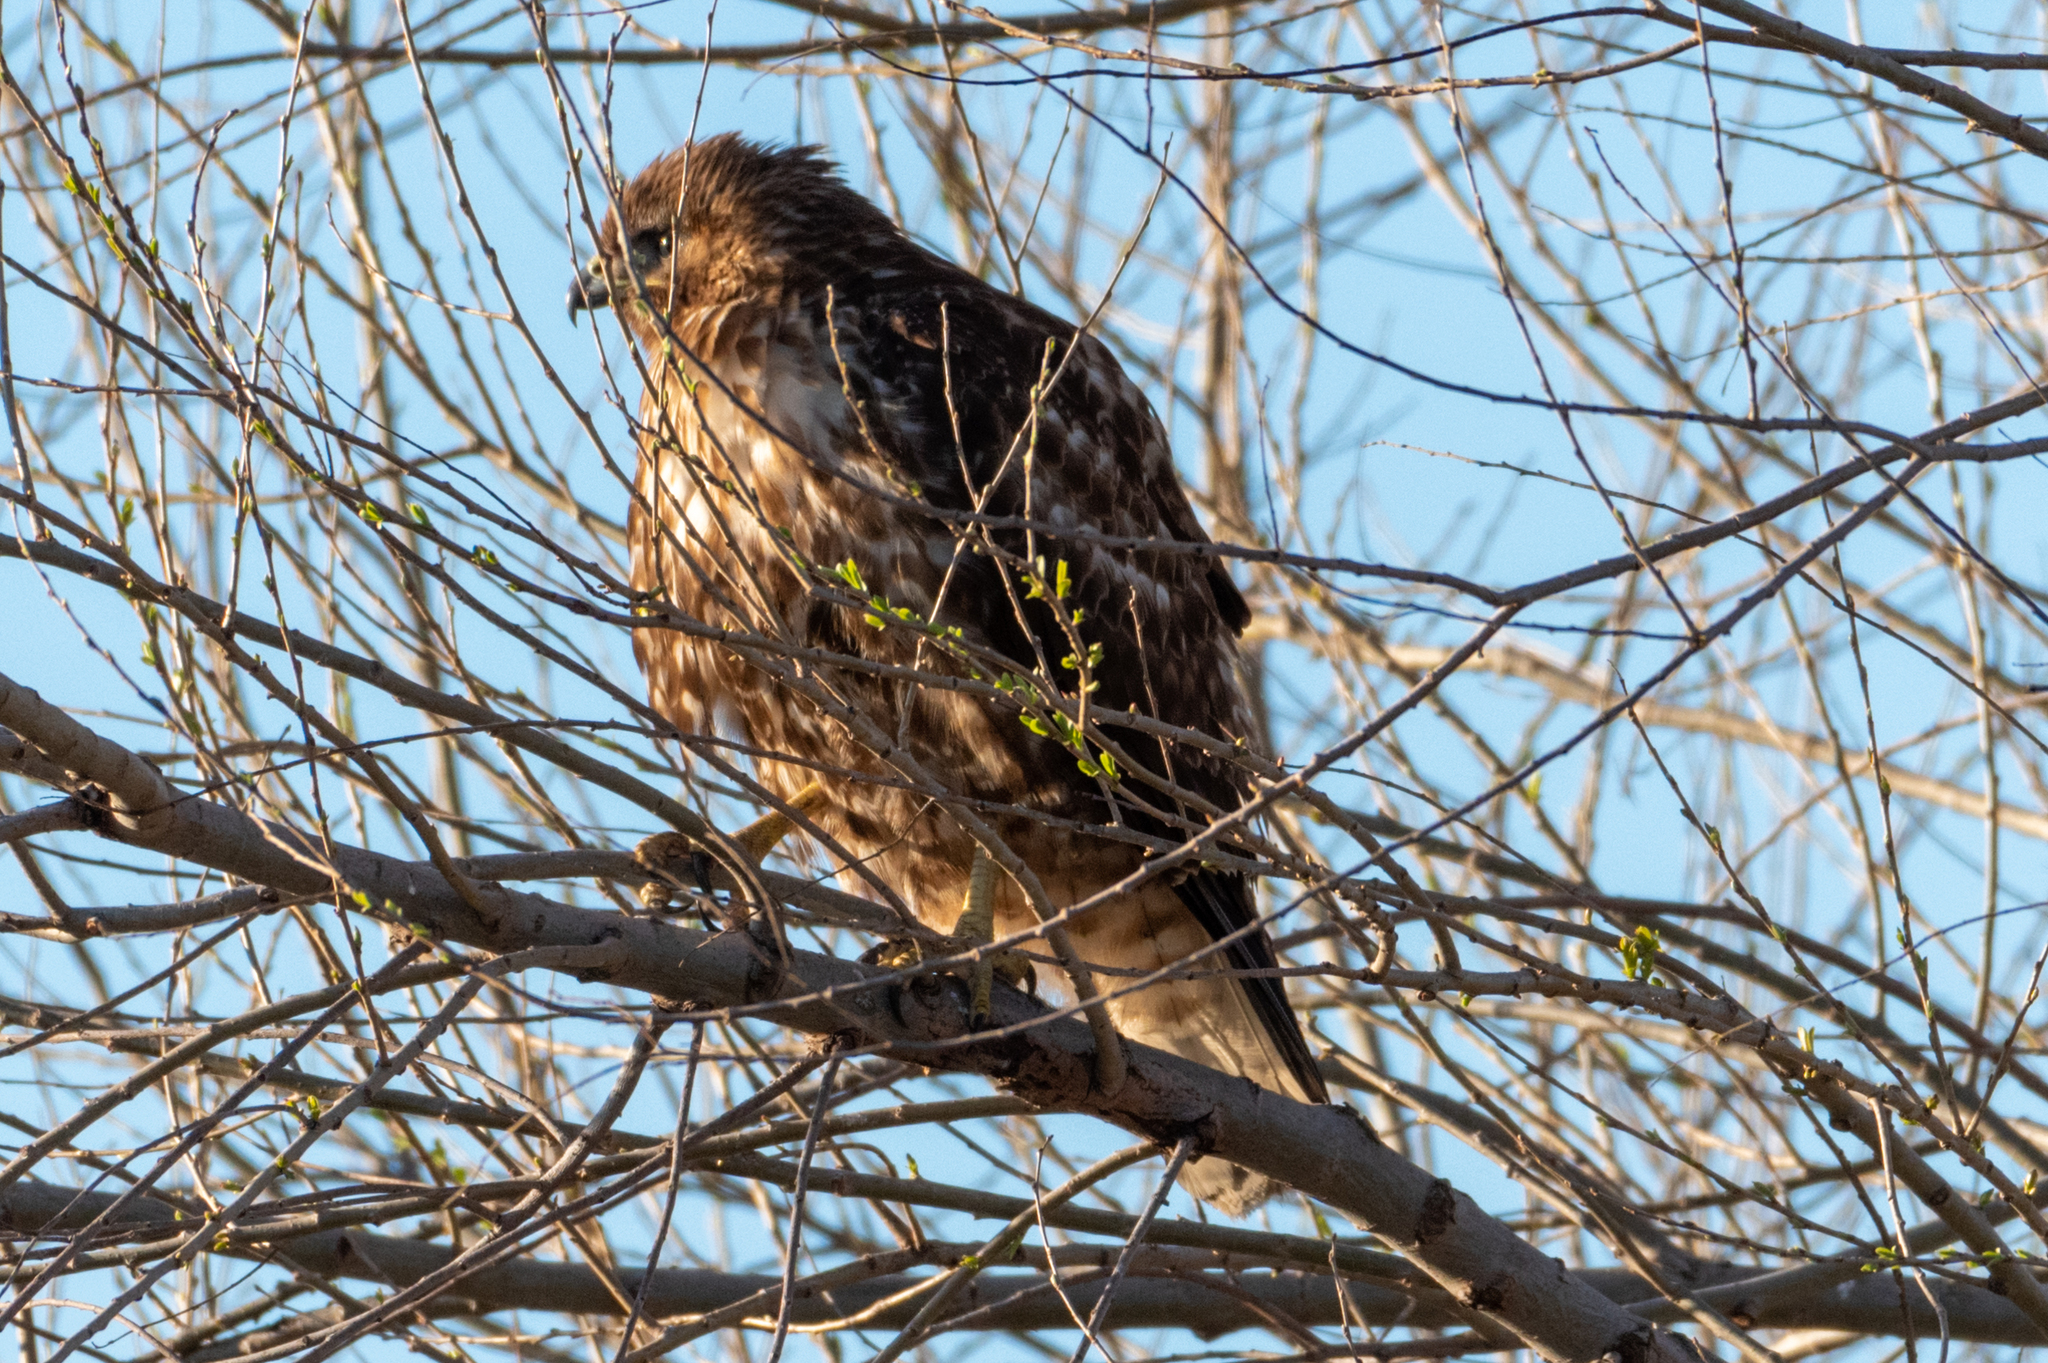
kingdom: Animalia
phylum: Chordata
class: Aves
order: Accipitriformes
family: Accipitridae
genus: Buteo
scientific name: Buteo jamaicensis
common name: Red-tailed hawk
